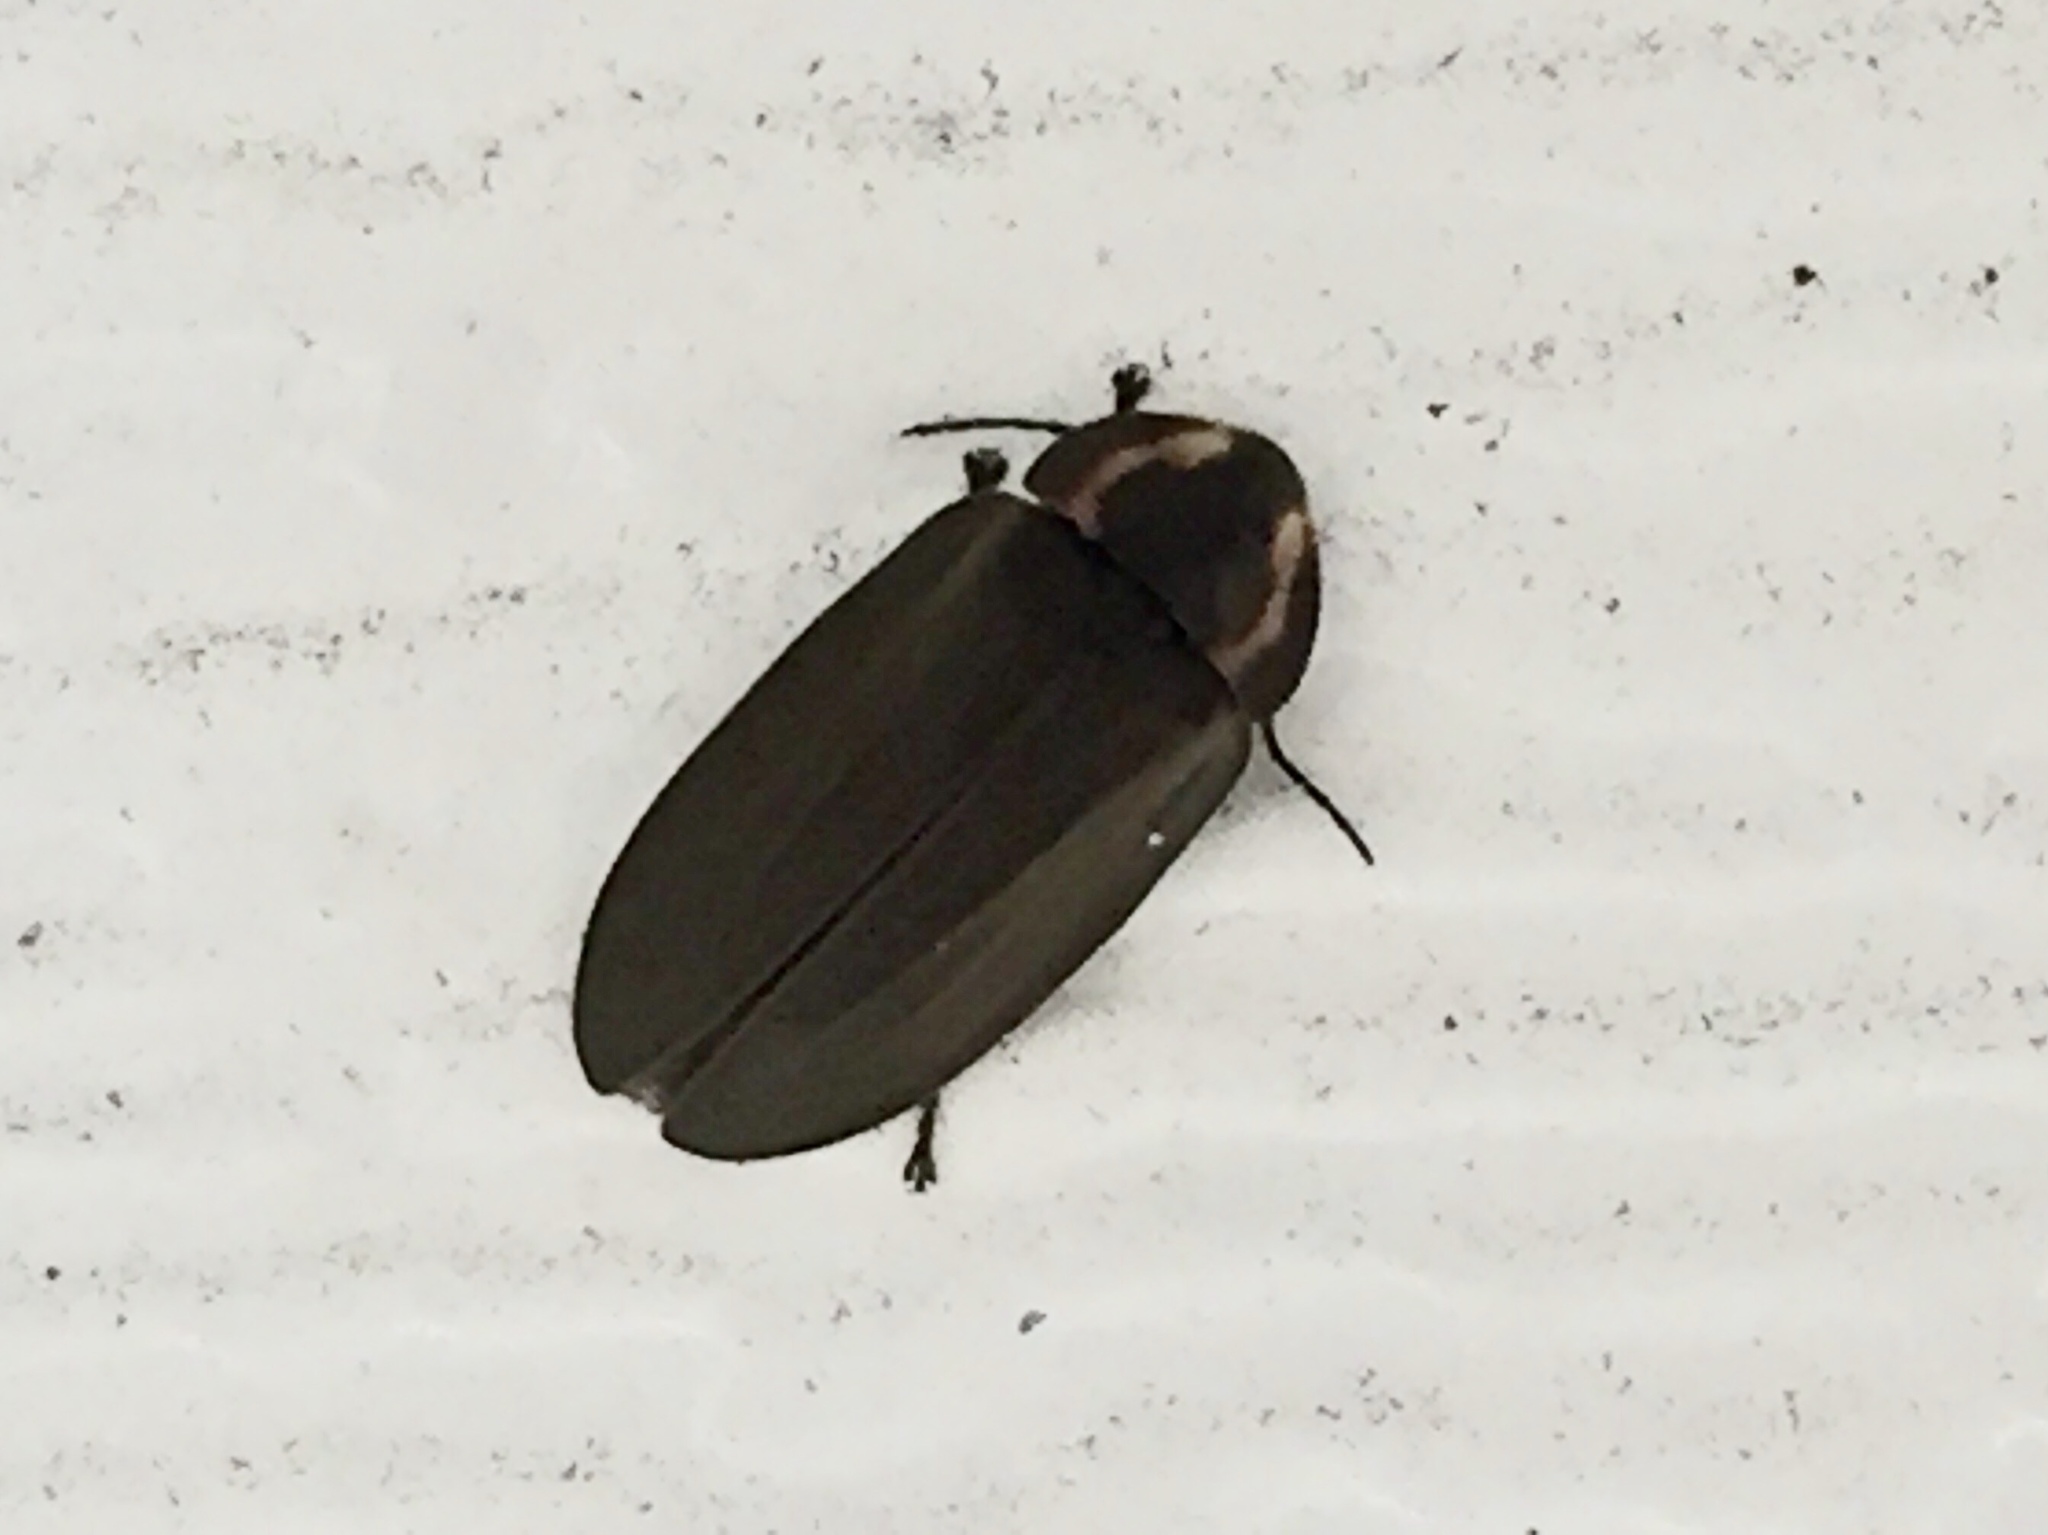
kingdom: Animalia
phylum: Arthropoda
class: Insecta
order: Coleoptera
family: Lampyridae
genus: Photinus
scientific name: Photinus corrusca
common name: Winter firefly
